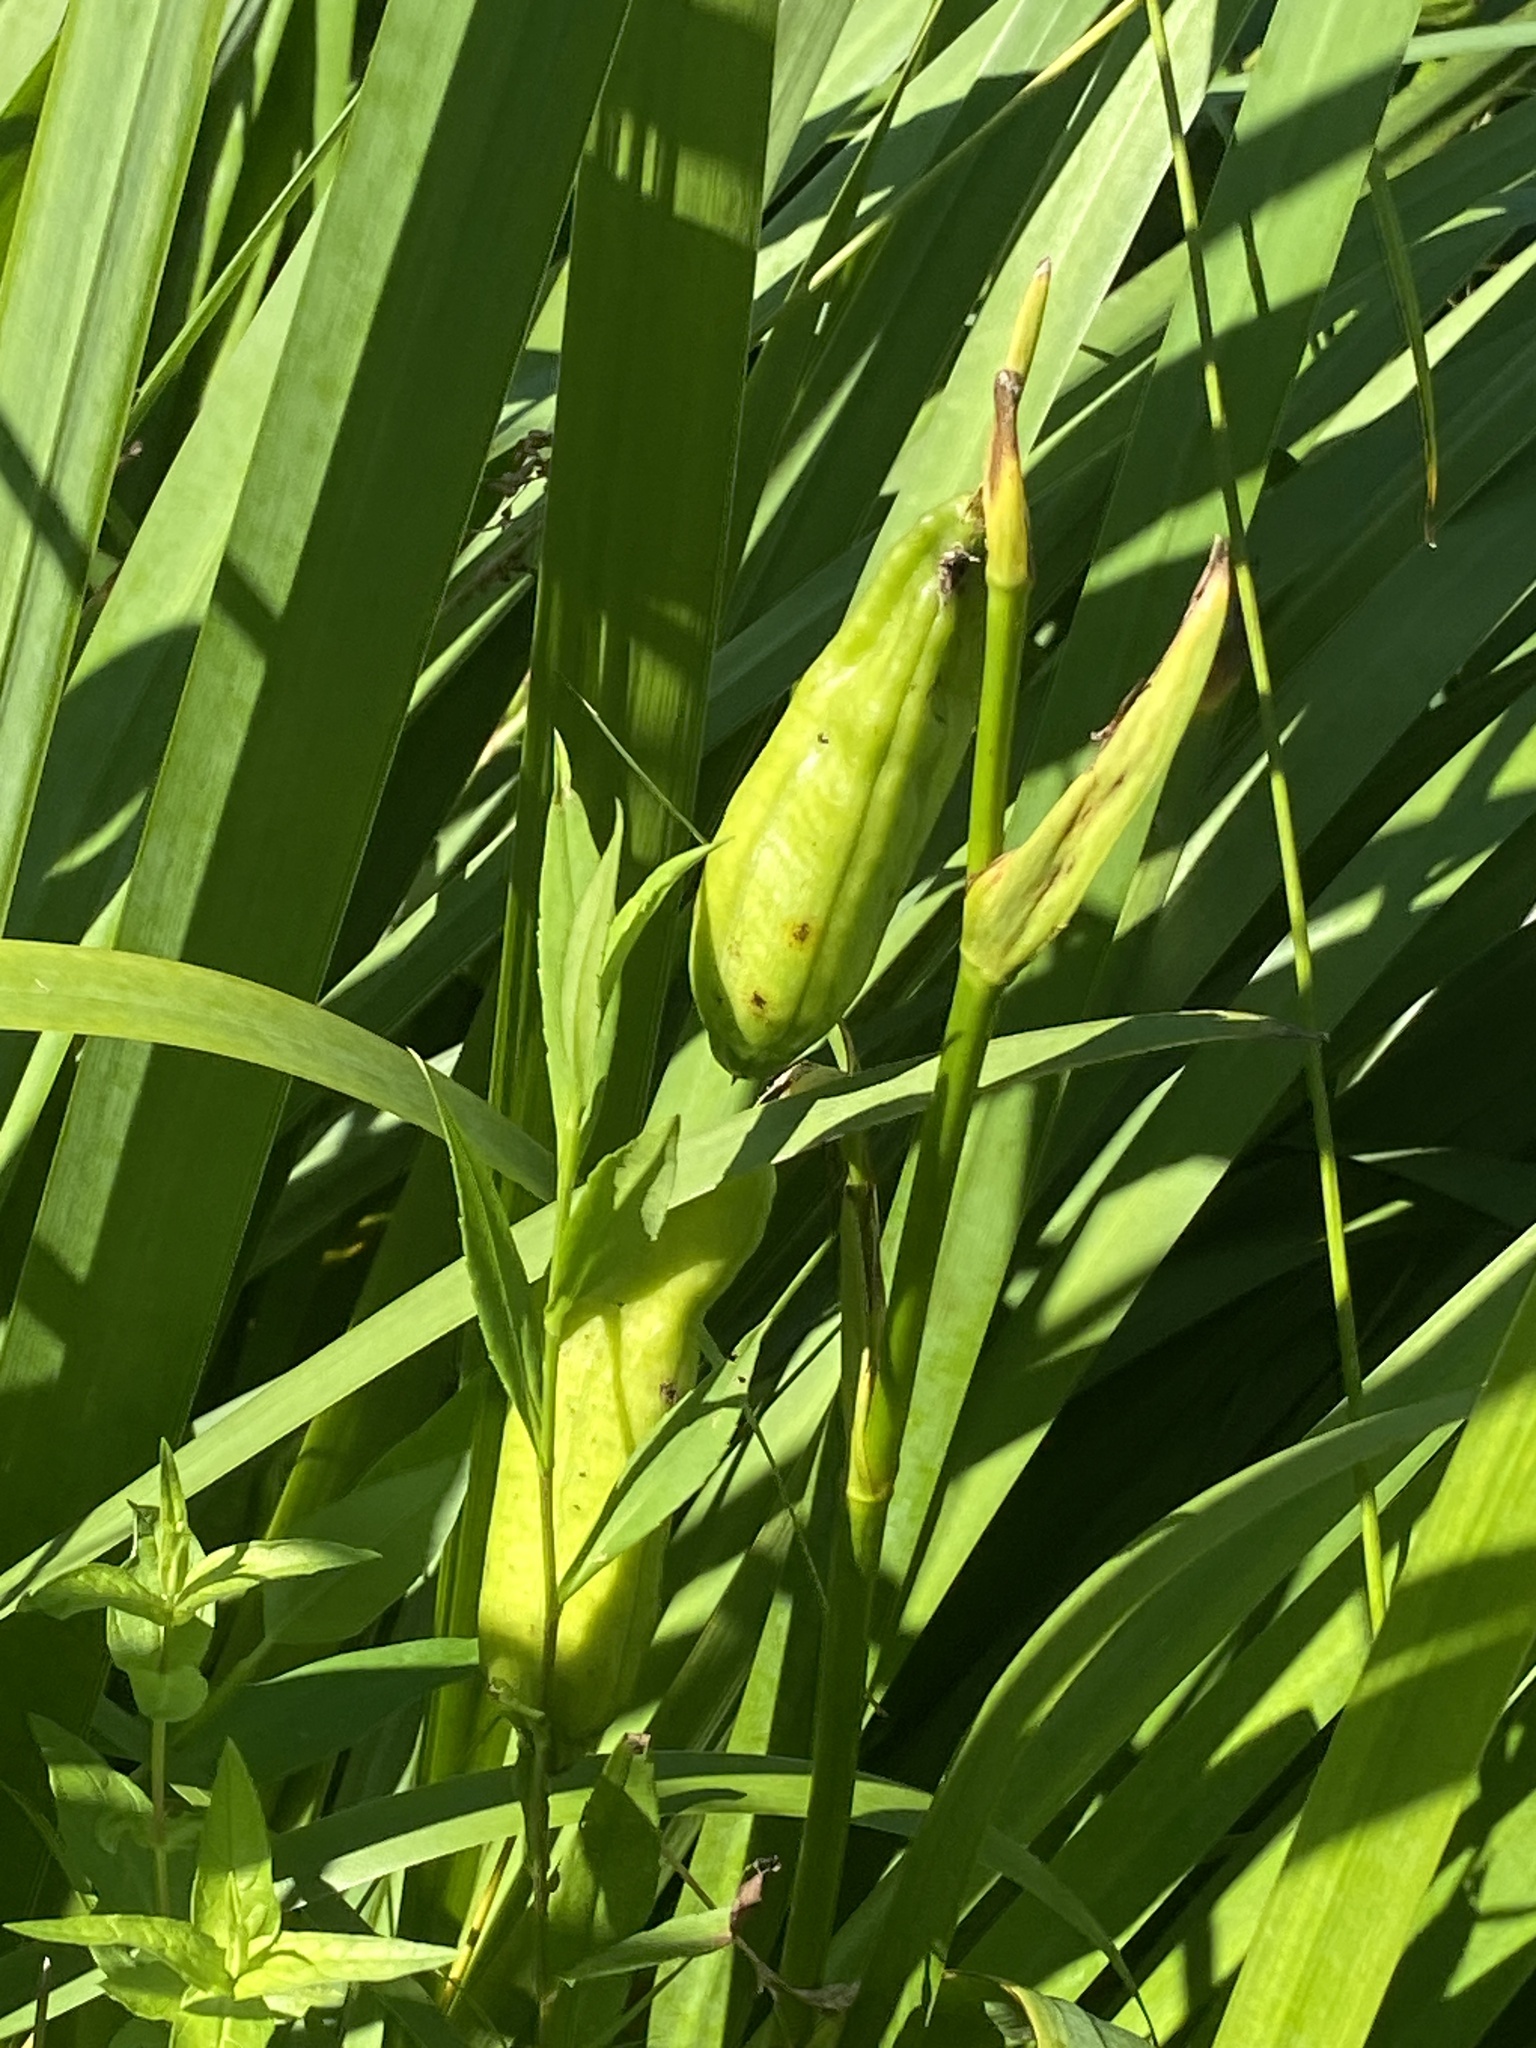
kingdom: Plantae
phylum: Tracheophyta
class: Liliopsida
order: Asparagales
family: Iridaceae
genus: Iris
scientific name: Iris pseudacorus
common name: Yellow flag
